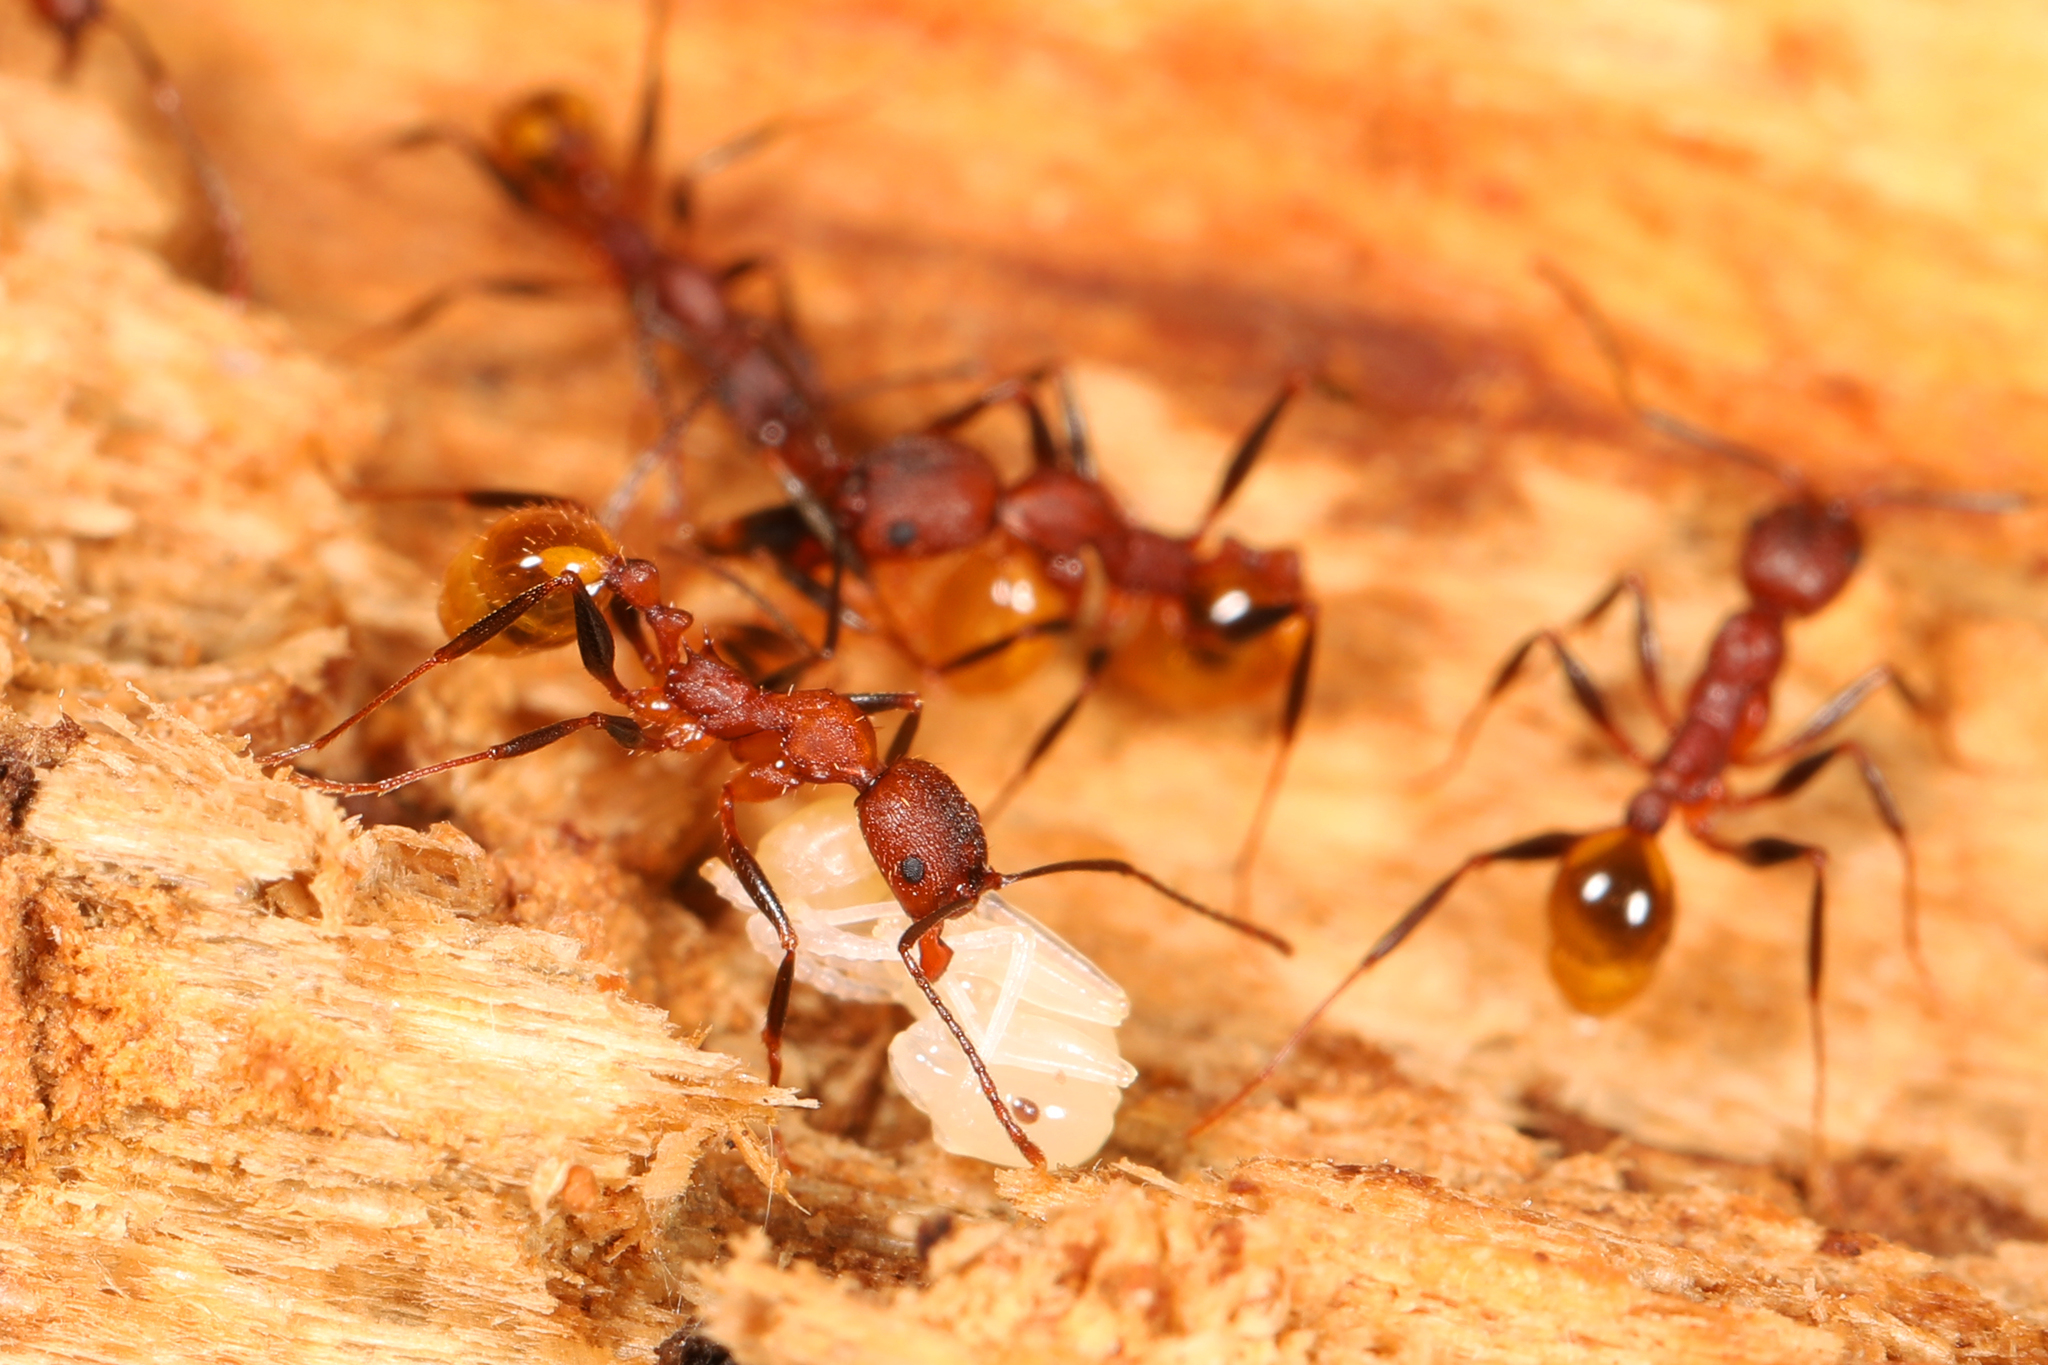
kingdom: Animalia
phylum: Arthropoda
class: Insecta
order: Hymenoptera
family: Formicidae
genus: Aphaenogaster
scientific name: Aphaenogaster lamellidens
